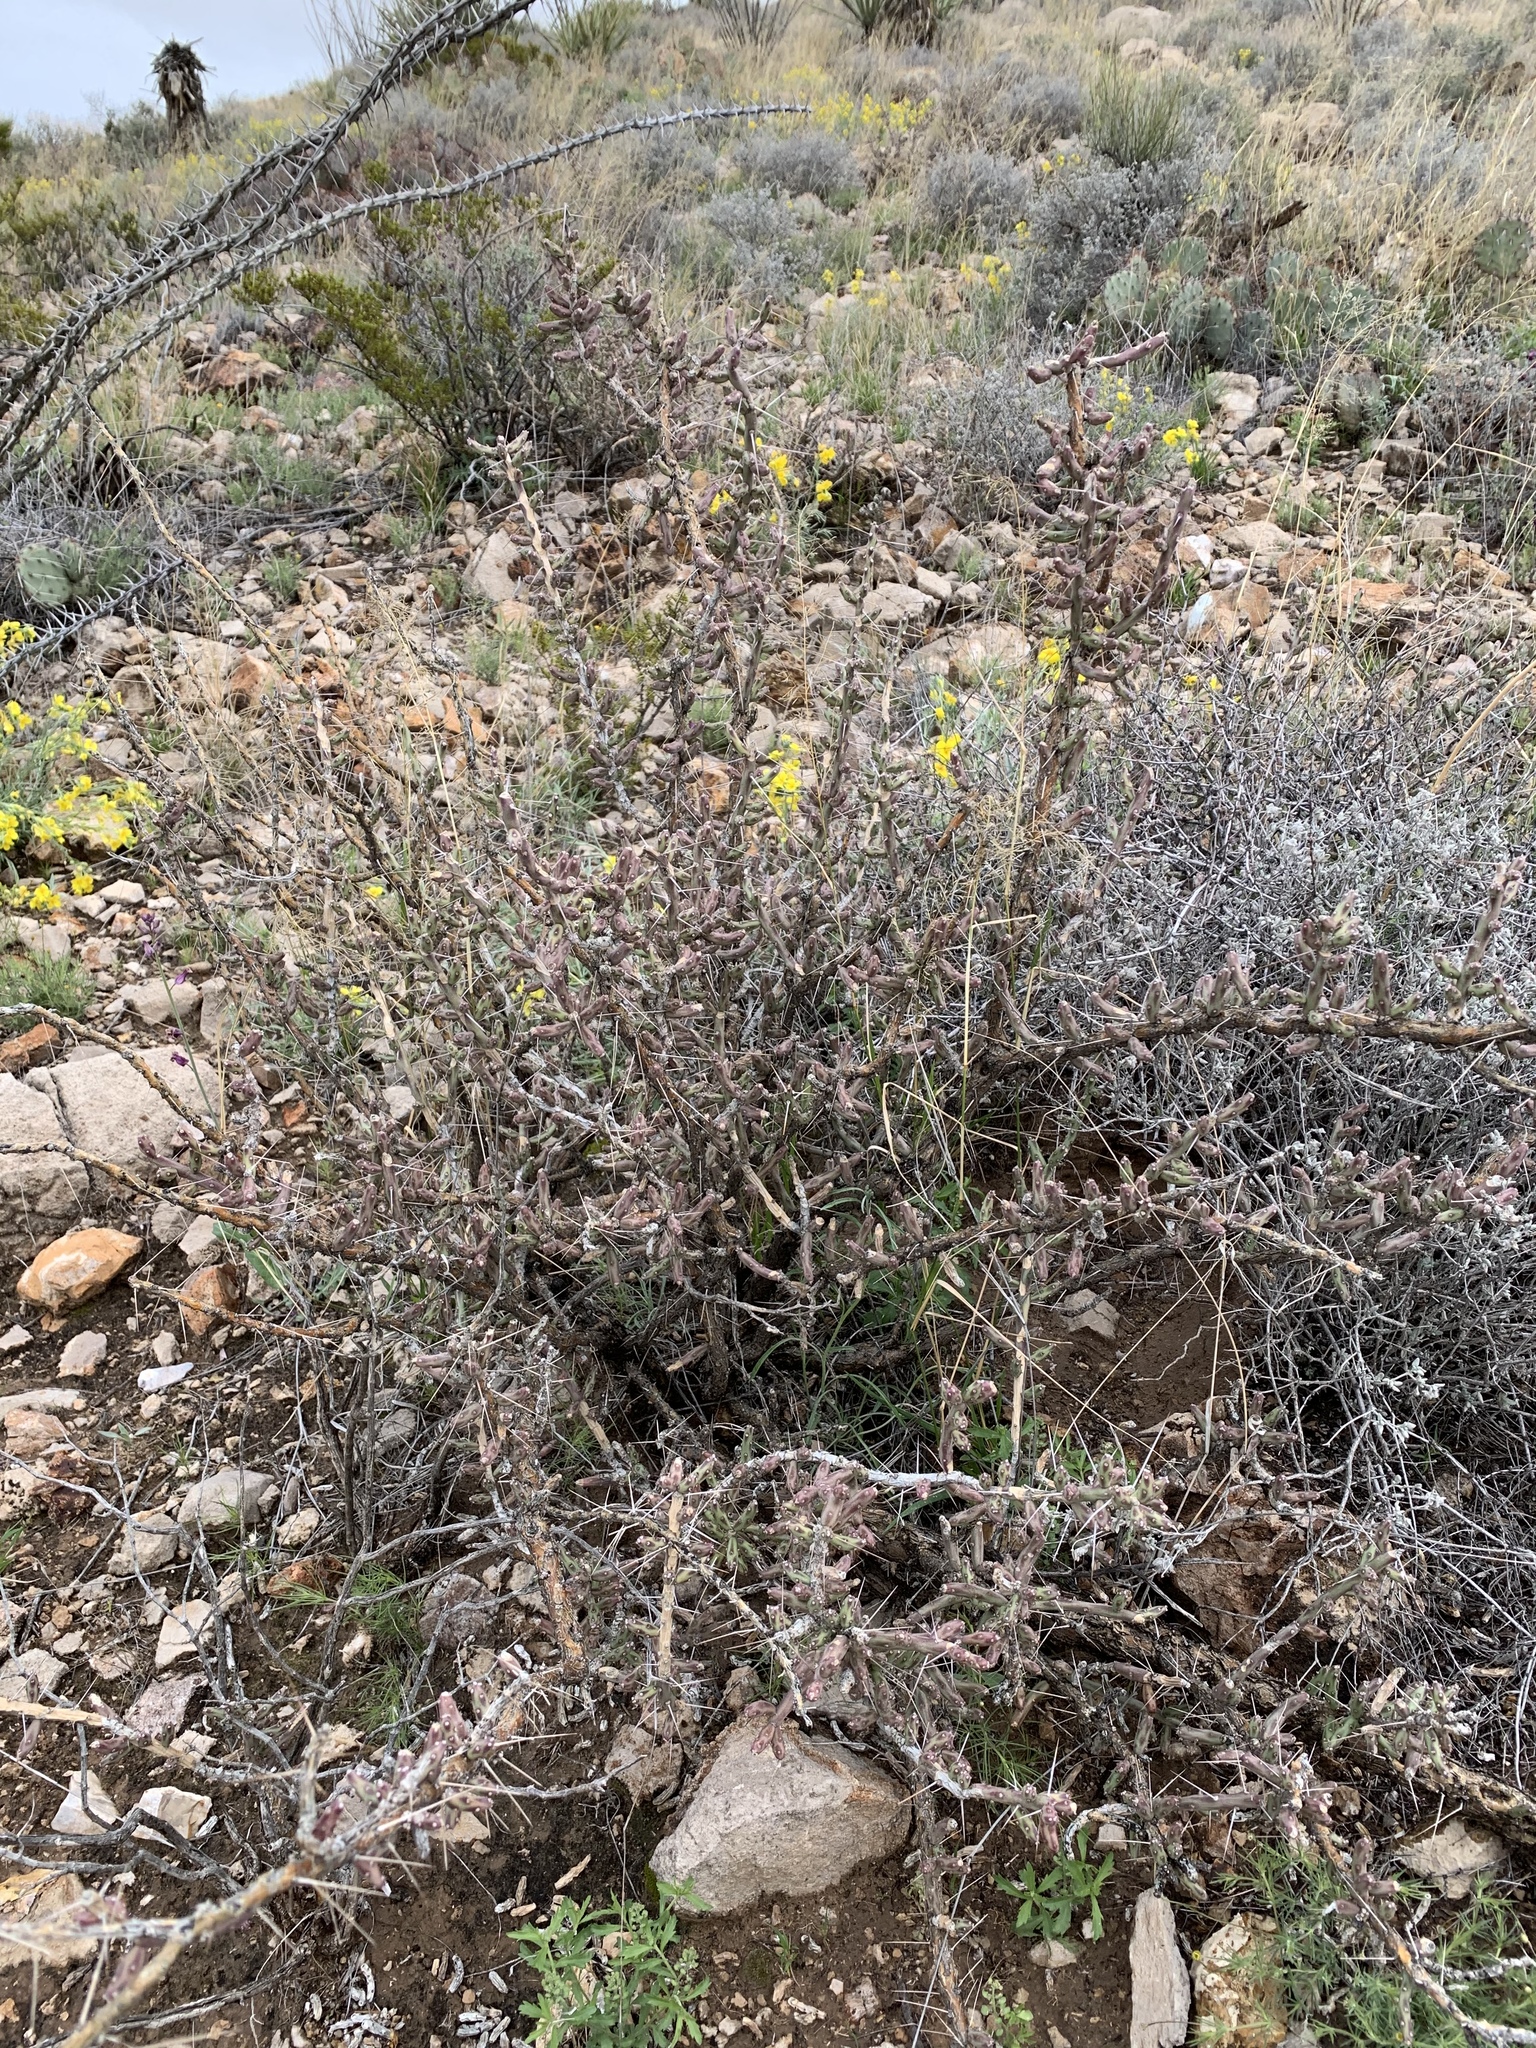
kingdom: Plantae
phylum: Tracheophyta
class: Magnoliopsida
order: Caryophyllales
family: Cactaceae
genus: Cylindropuntia
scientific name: Cylindropuntia leptocaulis
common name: Christmas cactus
